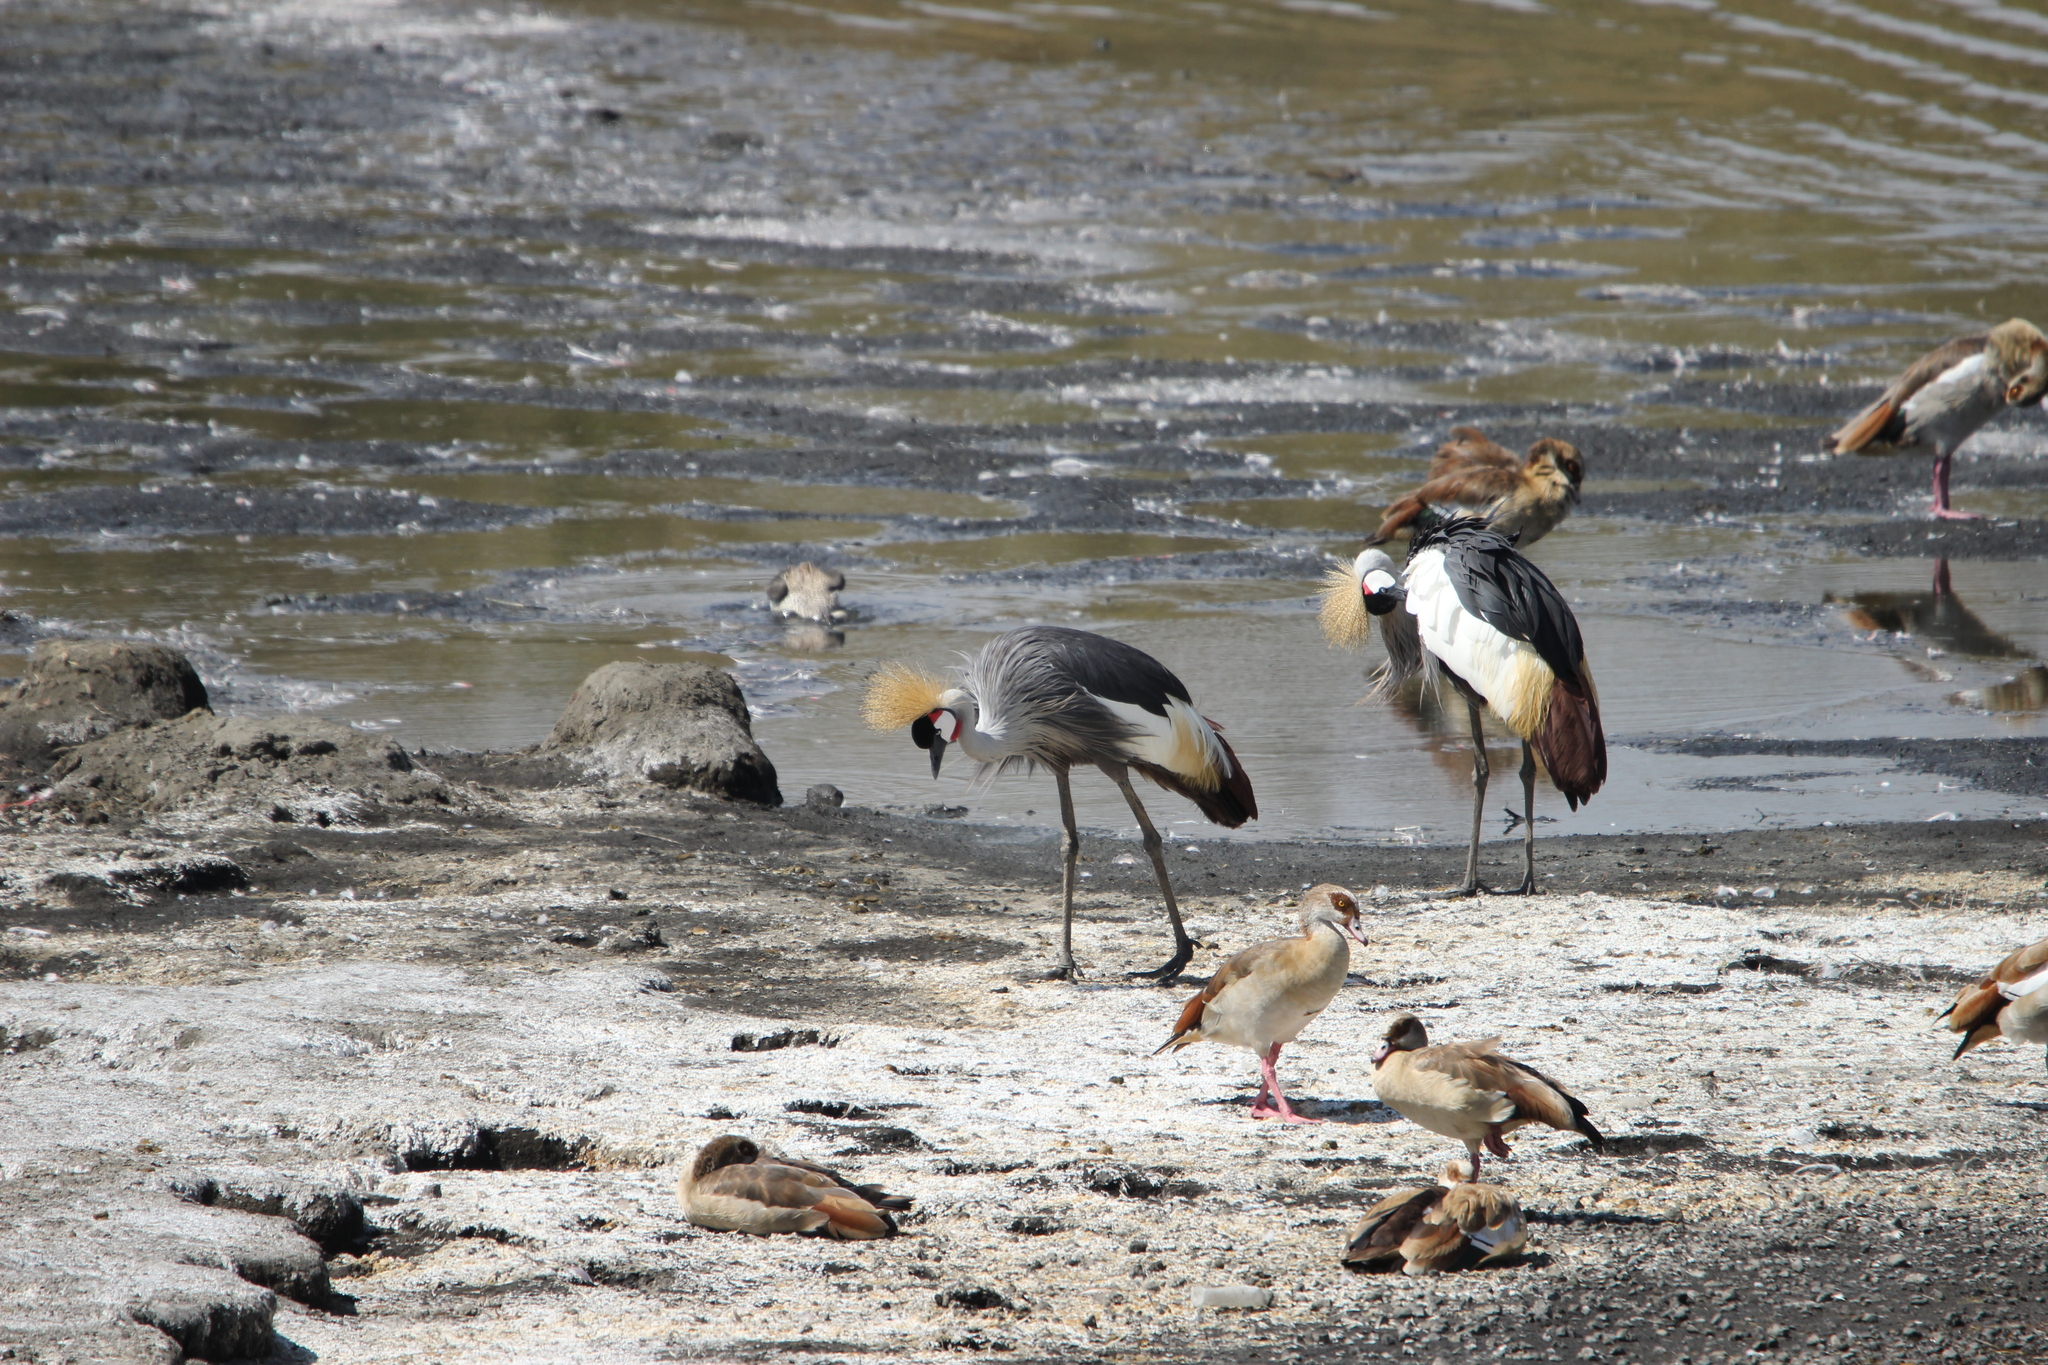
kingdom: Animalia
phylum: Chordata
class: Aves
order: Gruiformes
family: Gruidae
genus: Balearica
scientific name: Balearica regulorum
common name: Grey crowned crane
